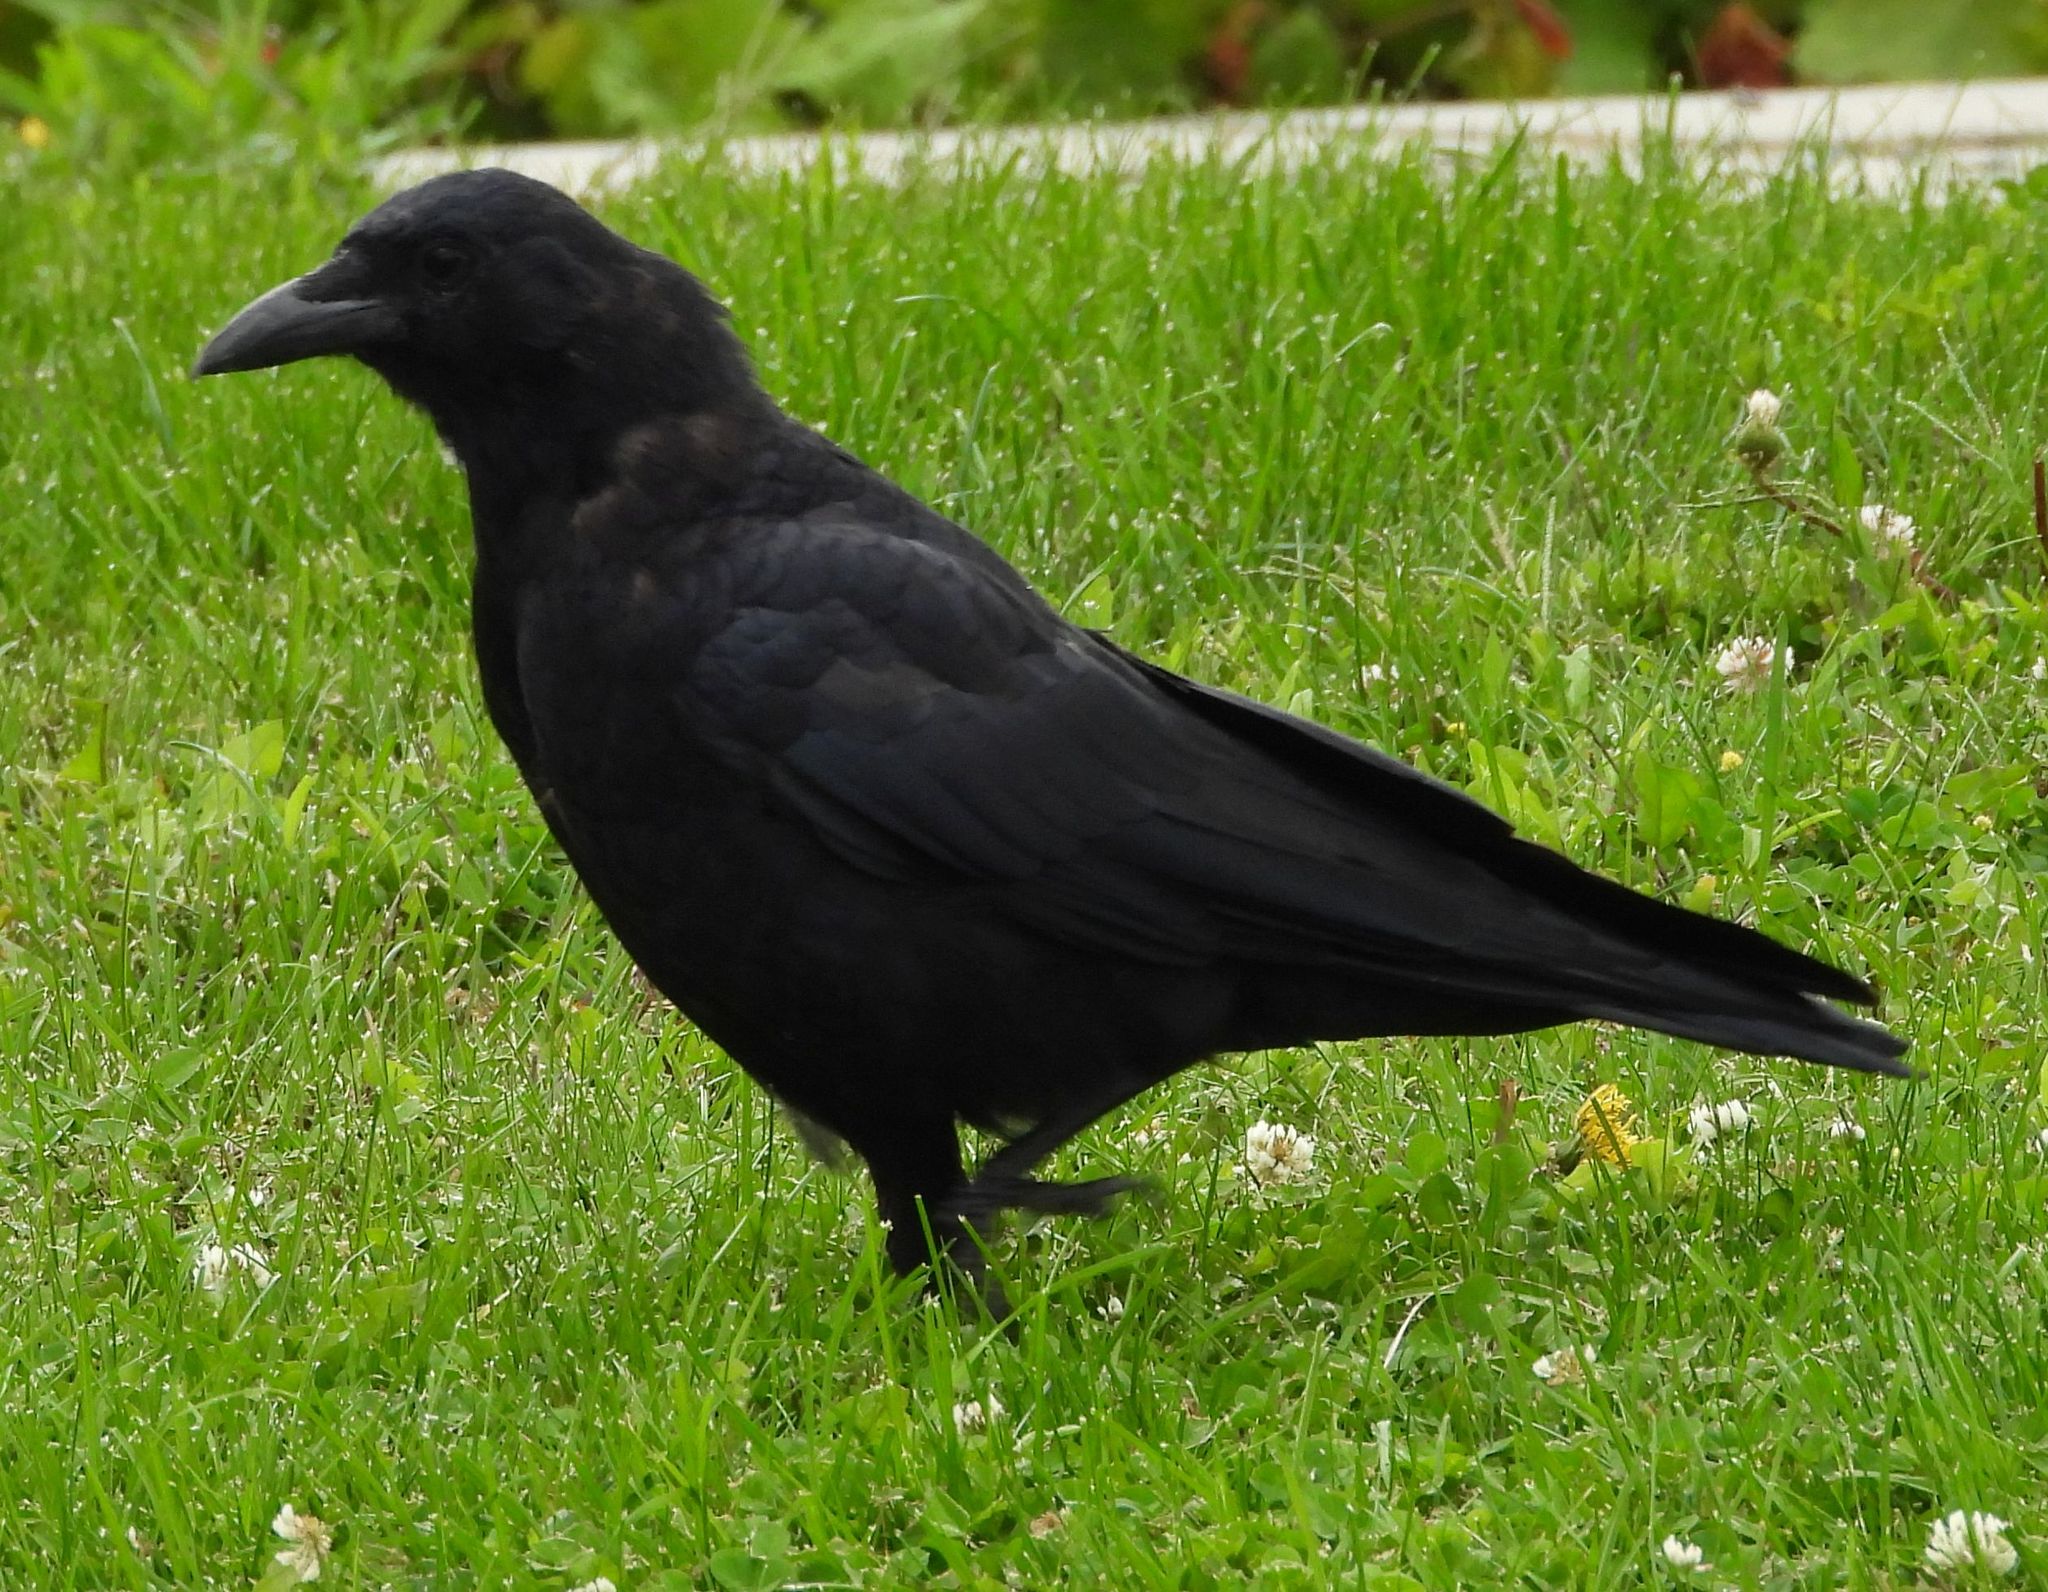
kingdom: Animalia
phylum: Chordata
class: Aves
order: Passeriformes
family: Corvidae
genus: Corvus
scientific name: Corvus brachyrhynchos
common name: American crow
